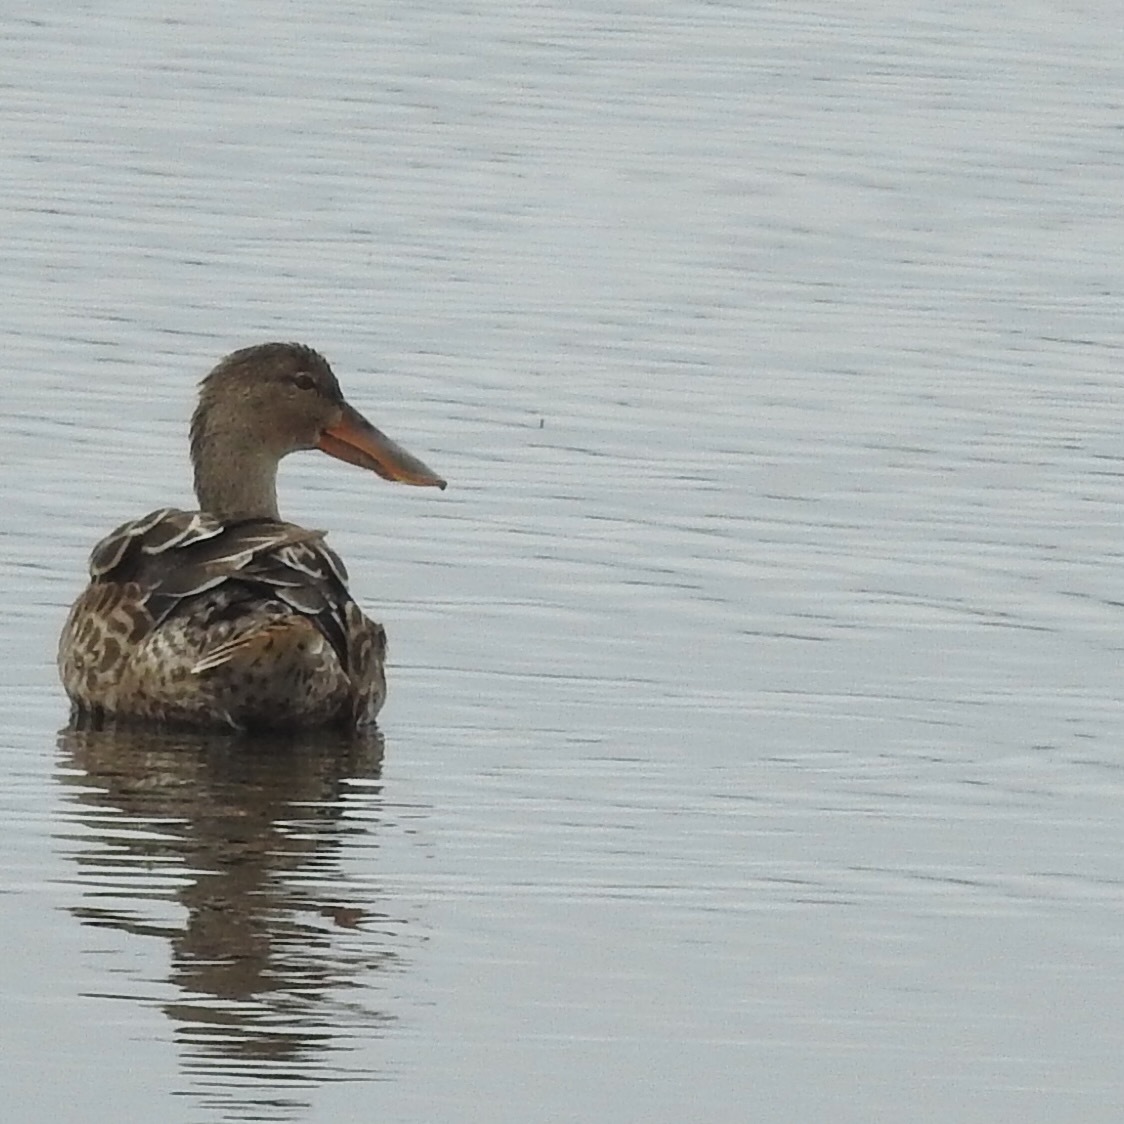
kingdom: Animalia
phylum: Chordata
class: Aves
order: Anseriformes
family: Anatidae
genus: Spatula
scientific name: Spatula clypeata
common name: Northern shoveler
